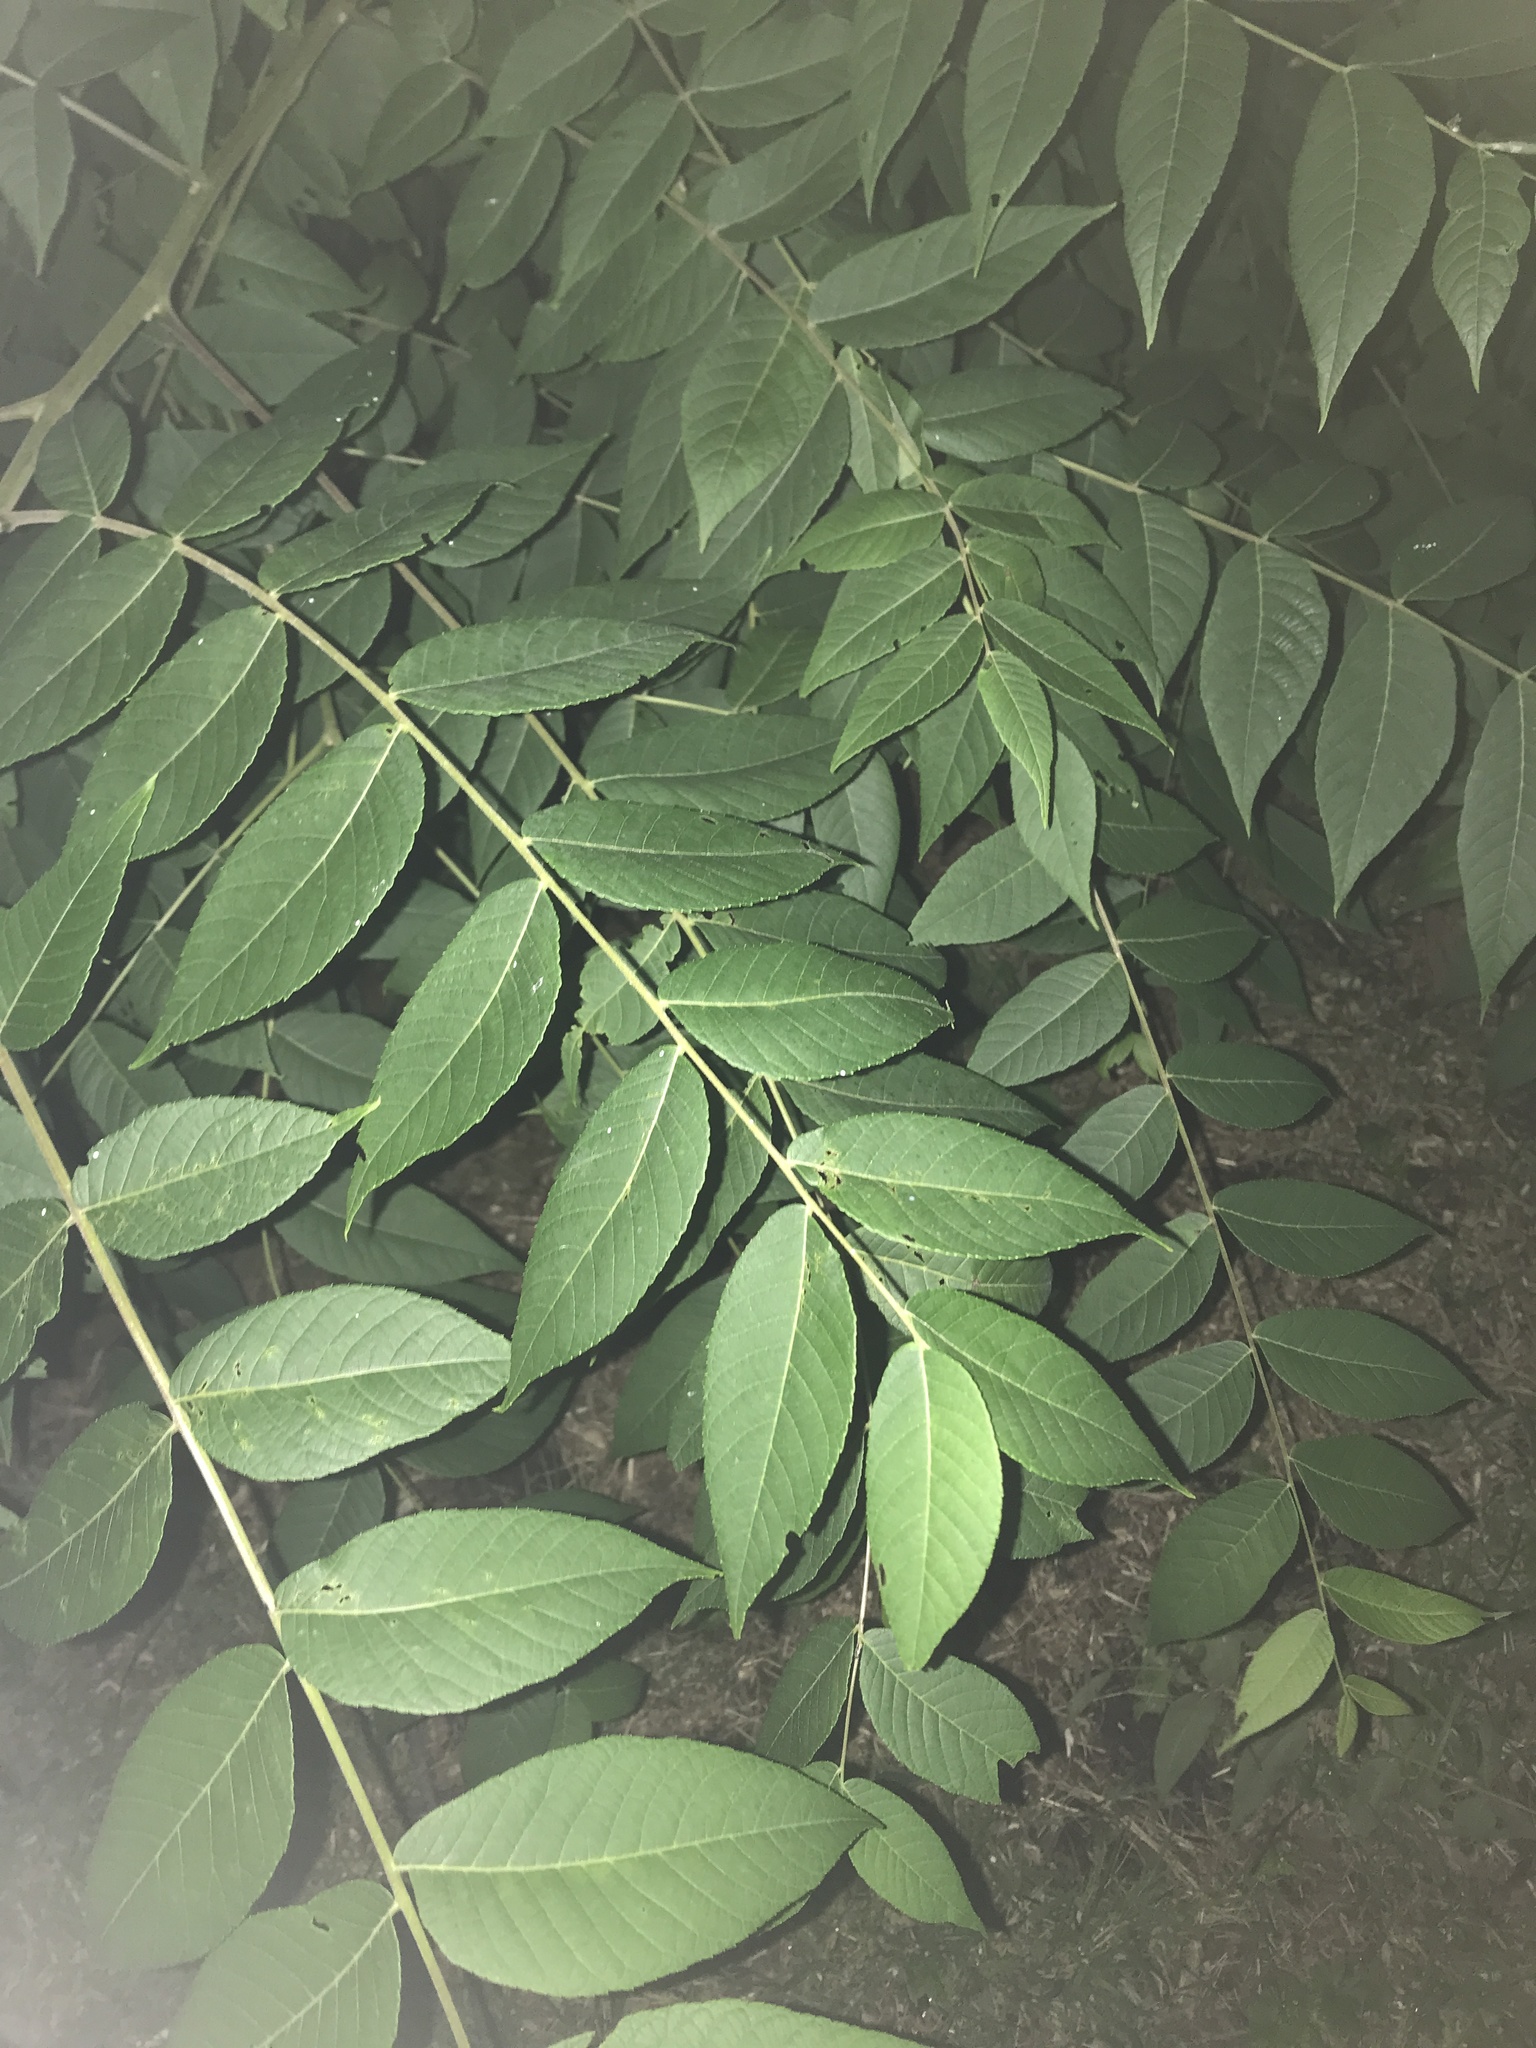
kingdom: Plantae
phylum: Tracheophyta
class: Magnoliopsida
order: Fagales
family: Juglandaceae
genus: Juglans
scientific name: Juglans nigra
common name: Black walnut
